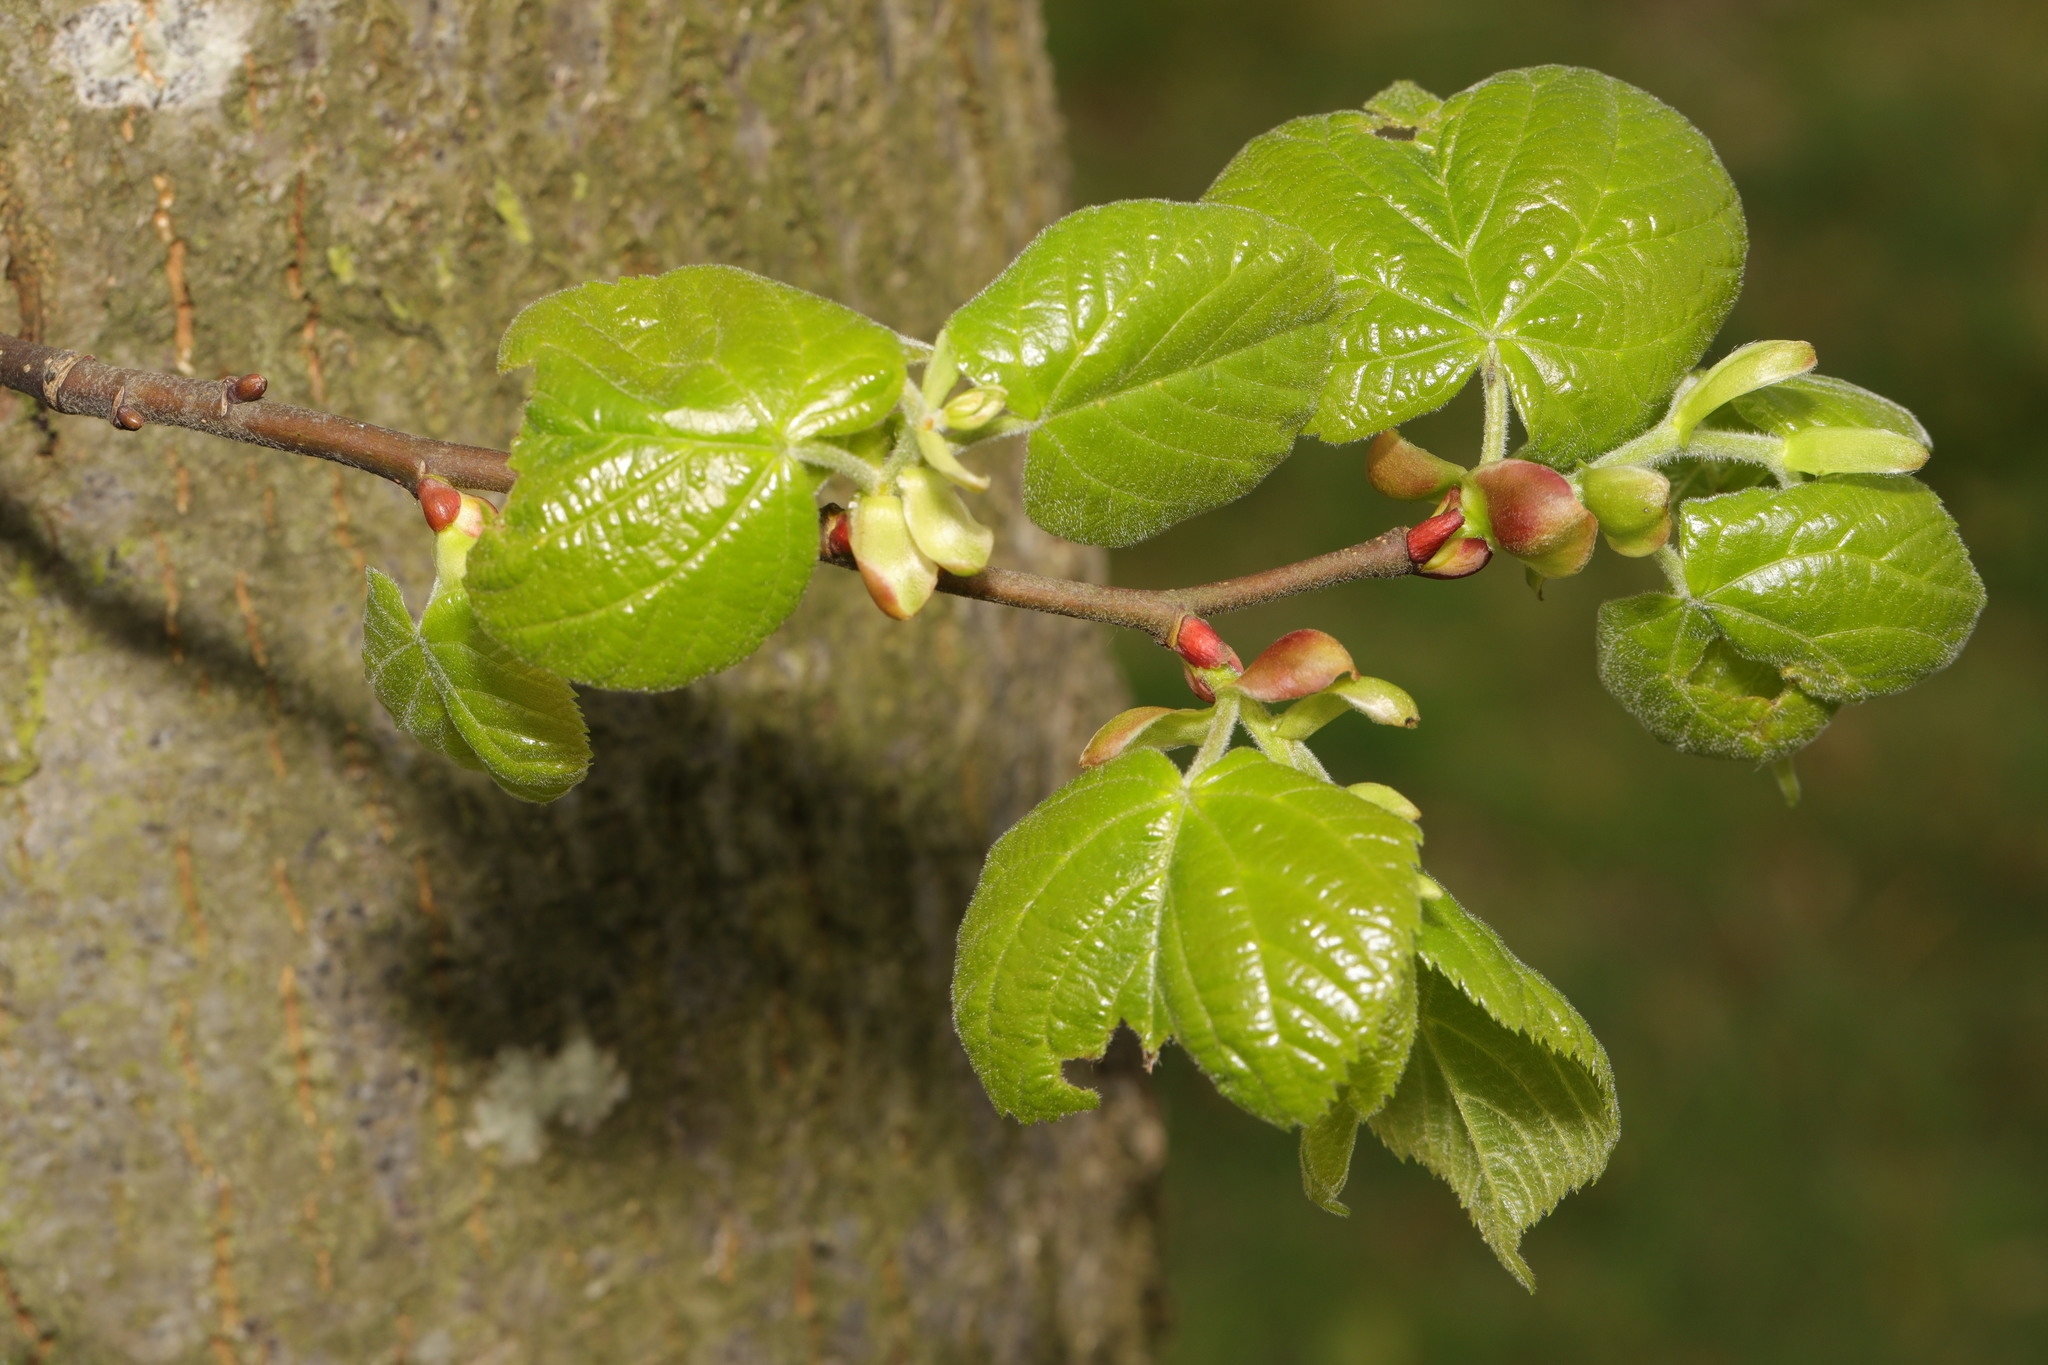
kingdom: Plantae
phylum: Tracheophyta
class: Magnoliopsida
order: Malvales
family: Malvaceae
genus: Tilia
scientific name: Tilia europaea
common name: European linden
